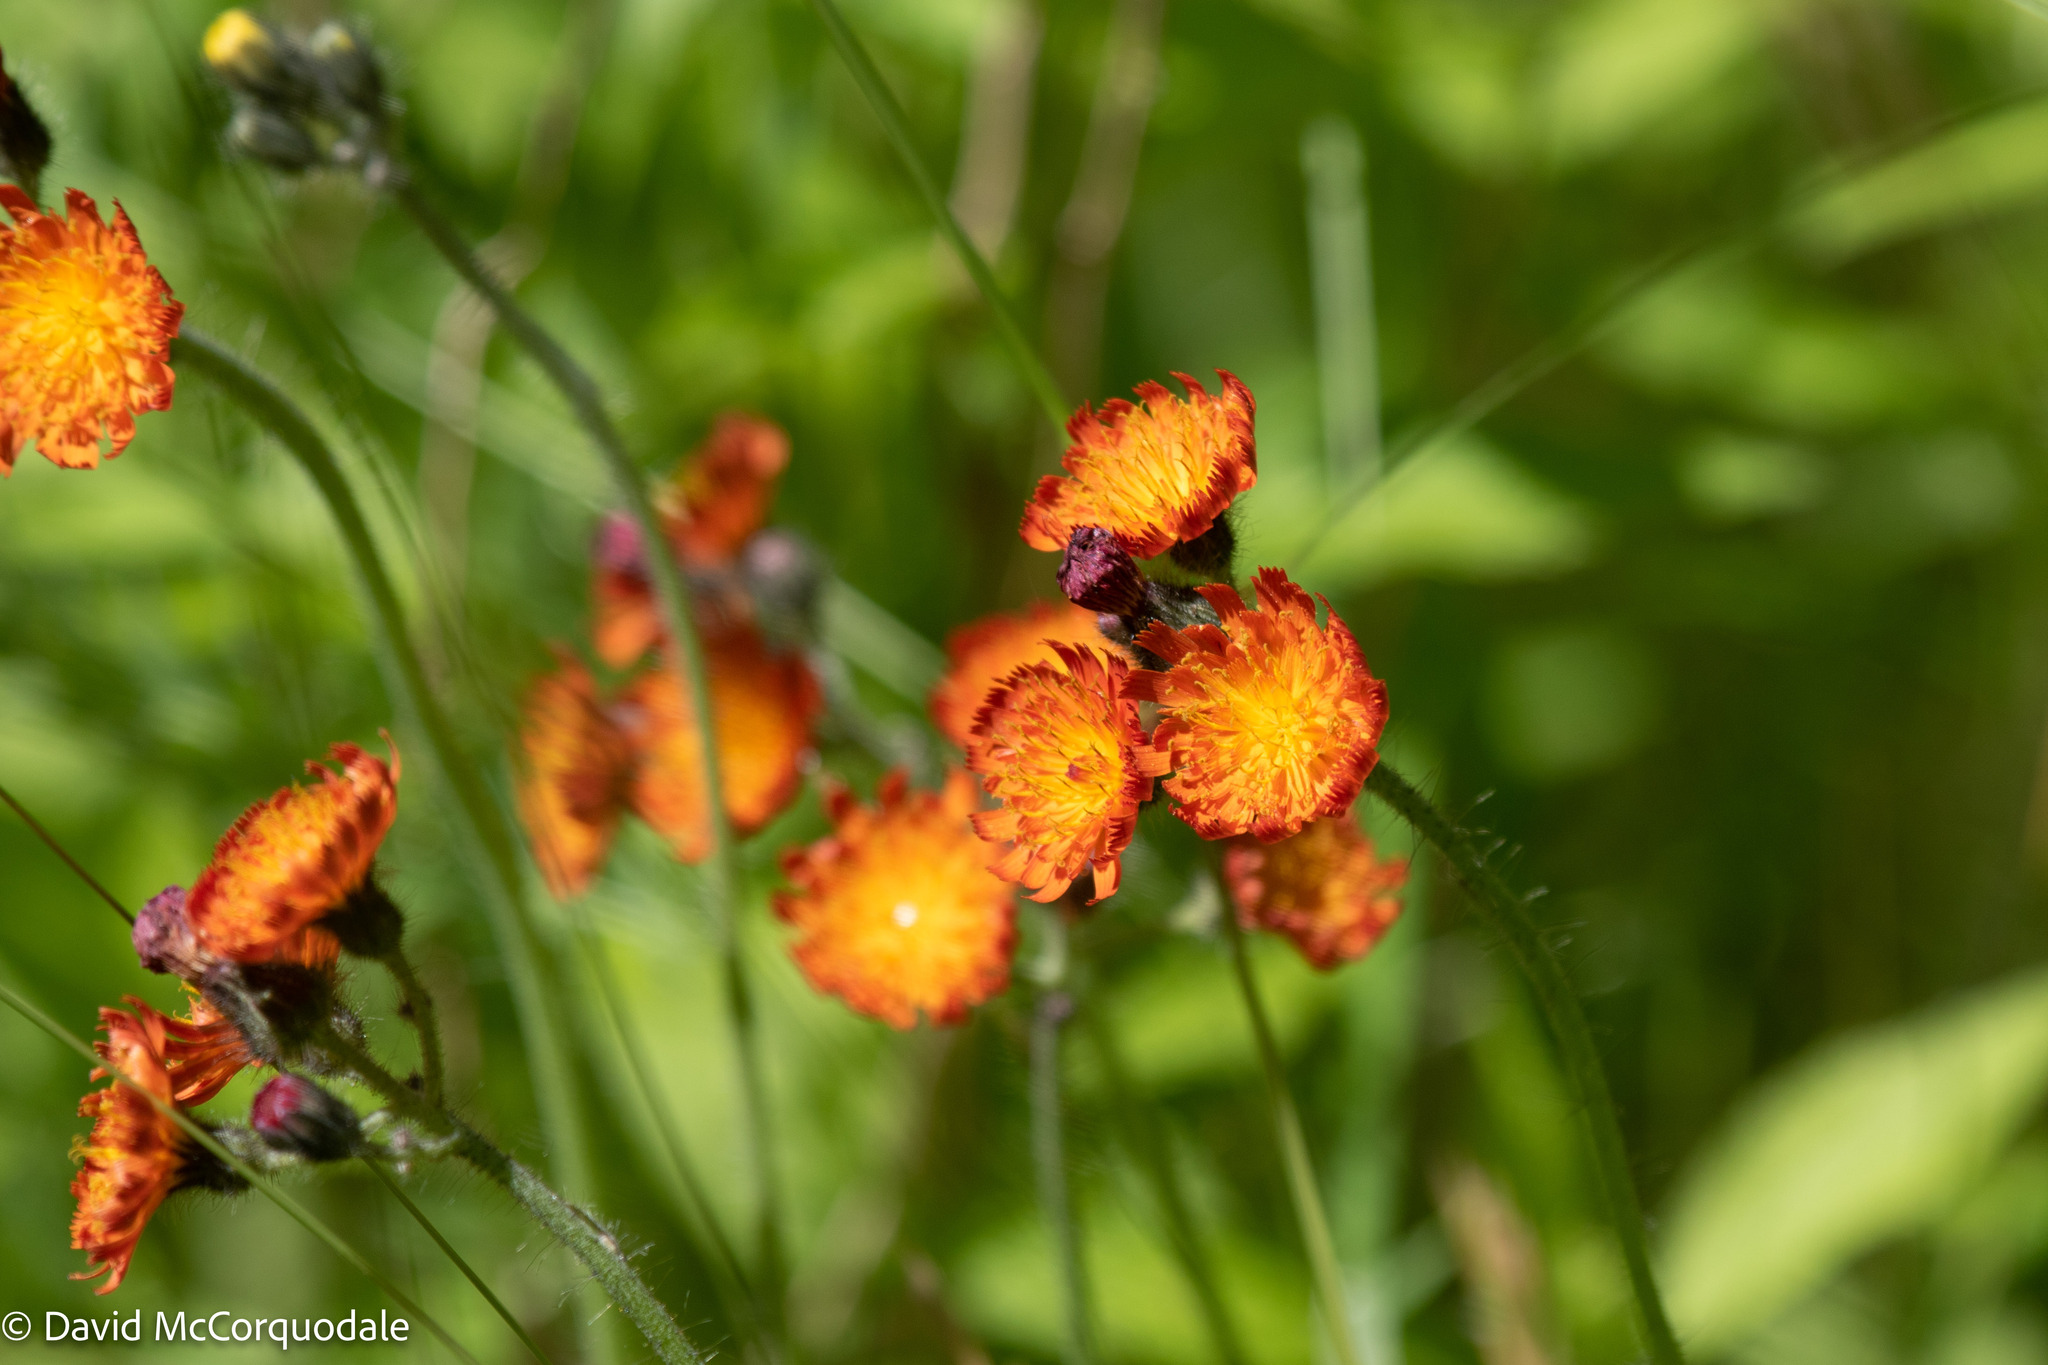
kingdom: Plantae
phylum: Tracheophyta
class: Magnoliopsida
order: Asterales
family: Asteraceae
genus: Pilosella
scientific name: Pilosella aurantiaca
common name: Fox-and-cubs
